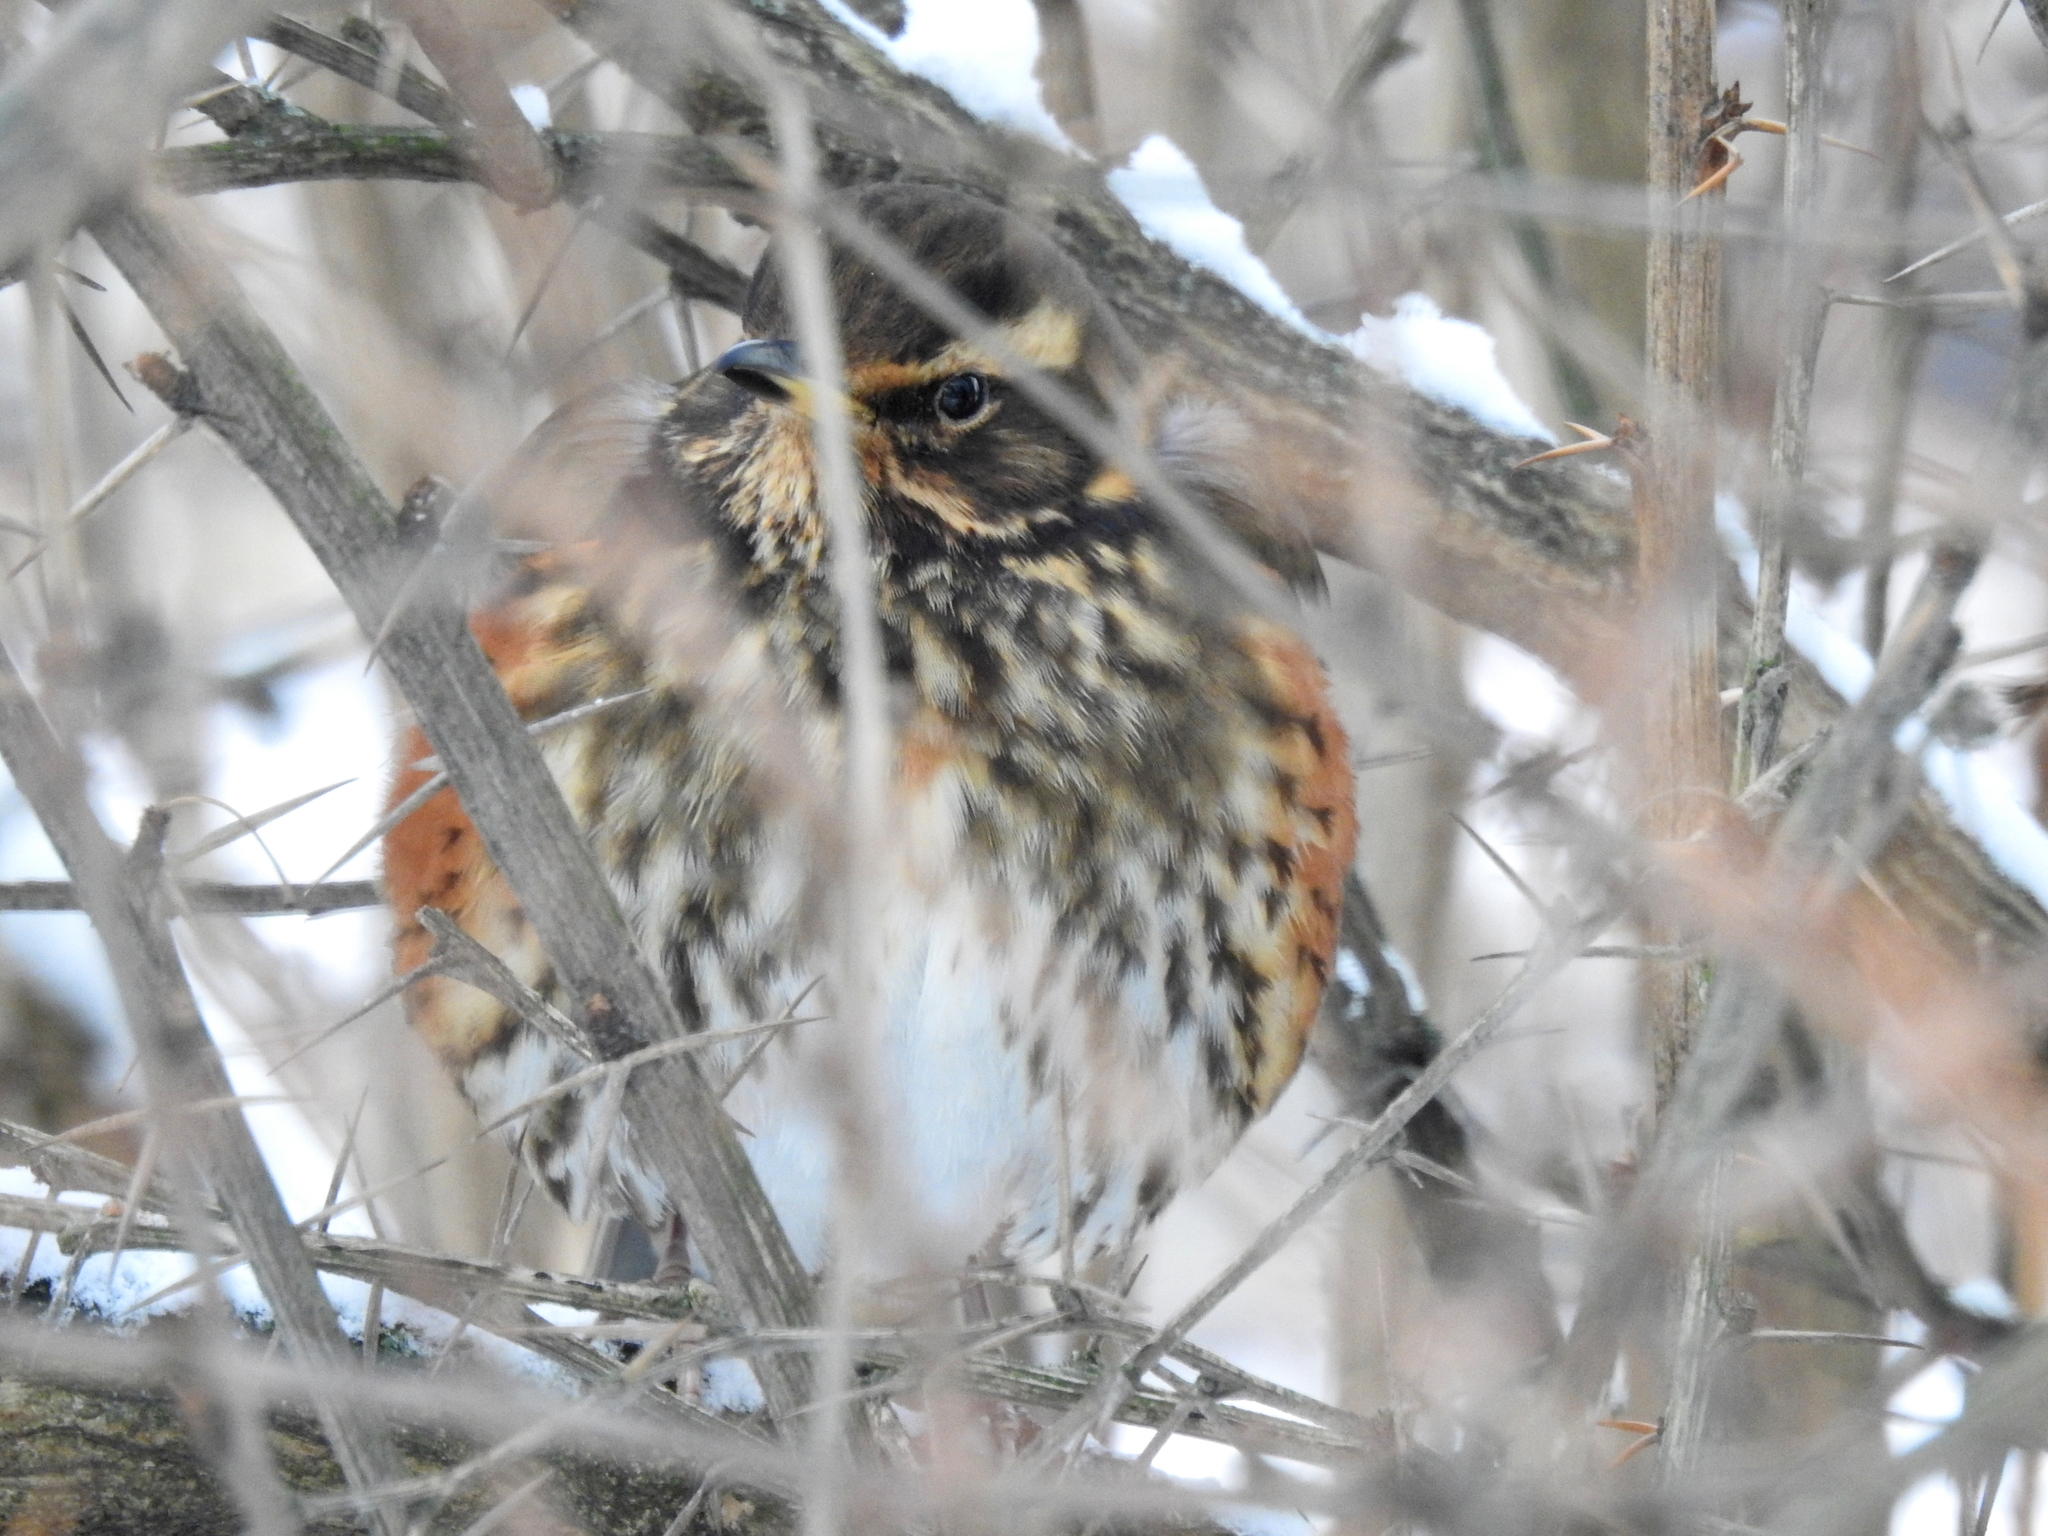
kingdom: Animalia
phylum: Chordata
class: Aves
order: Passeriformes
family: Turdidae
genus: Turdus
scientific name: Turdus iliacus
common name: Redwing
